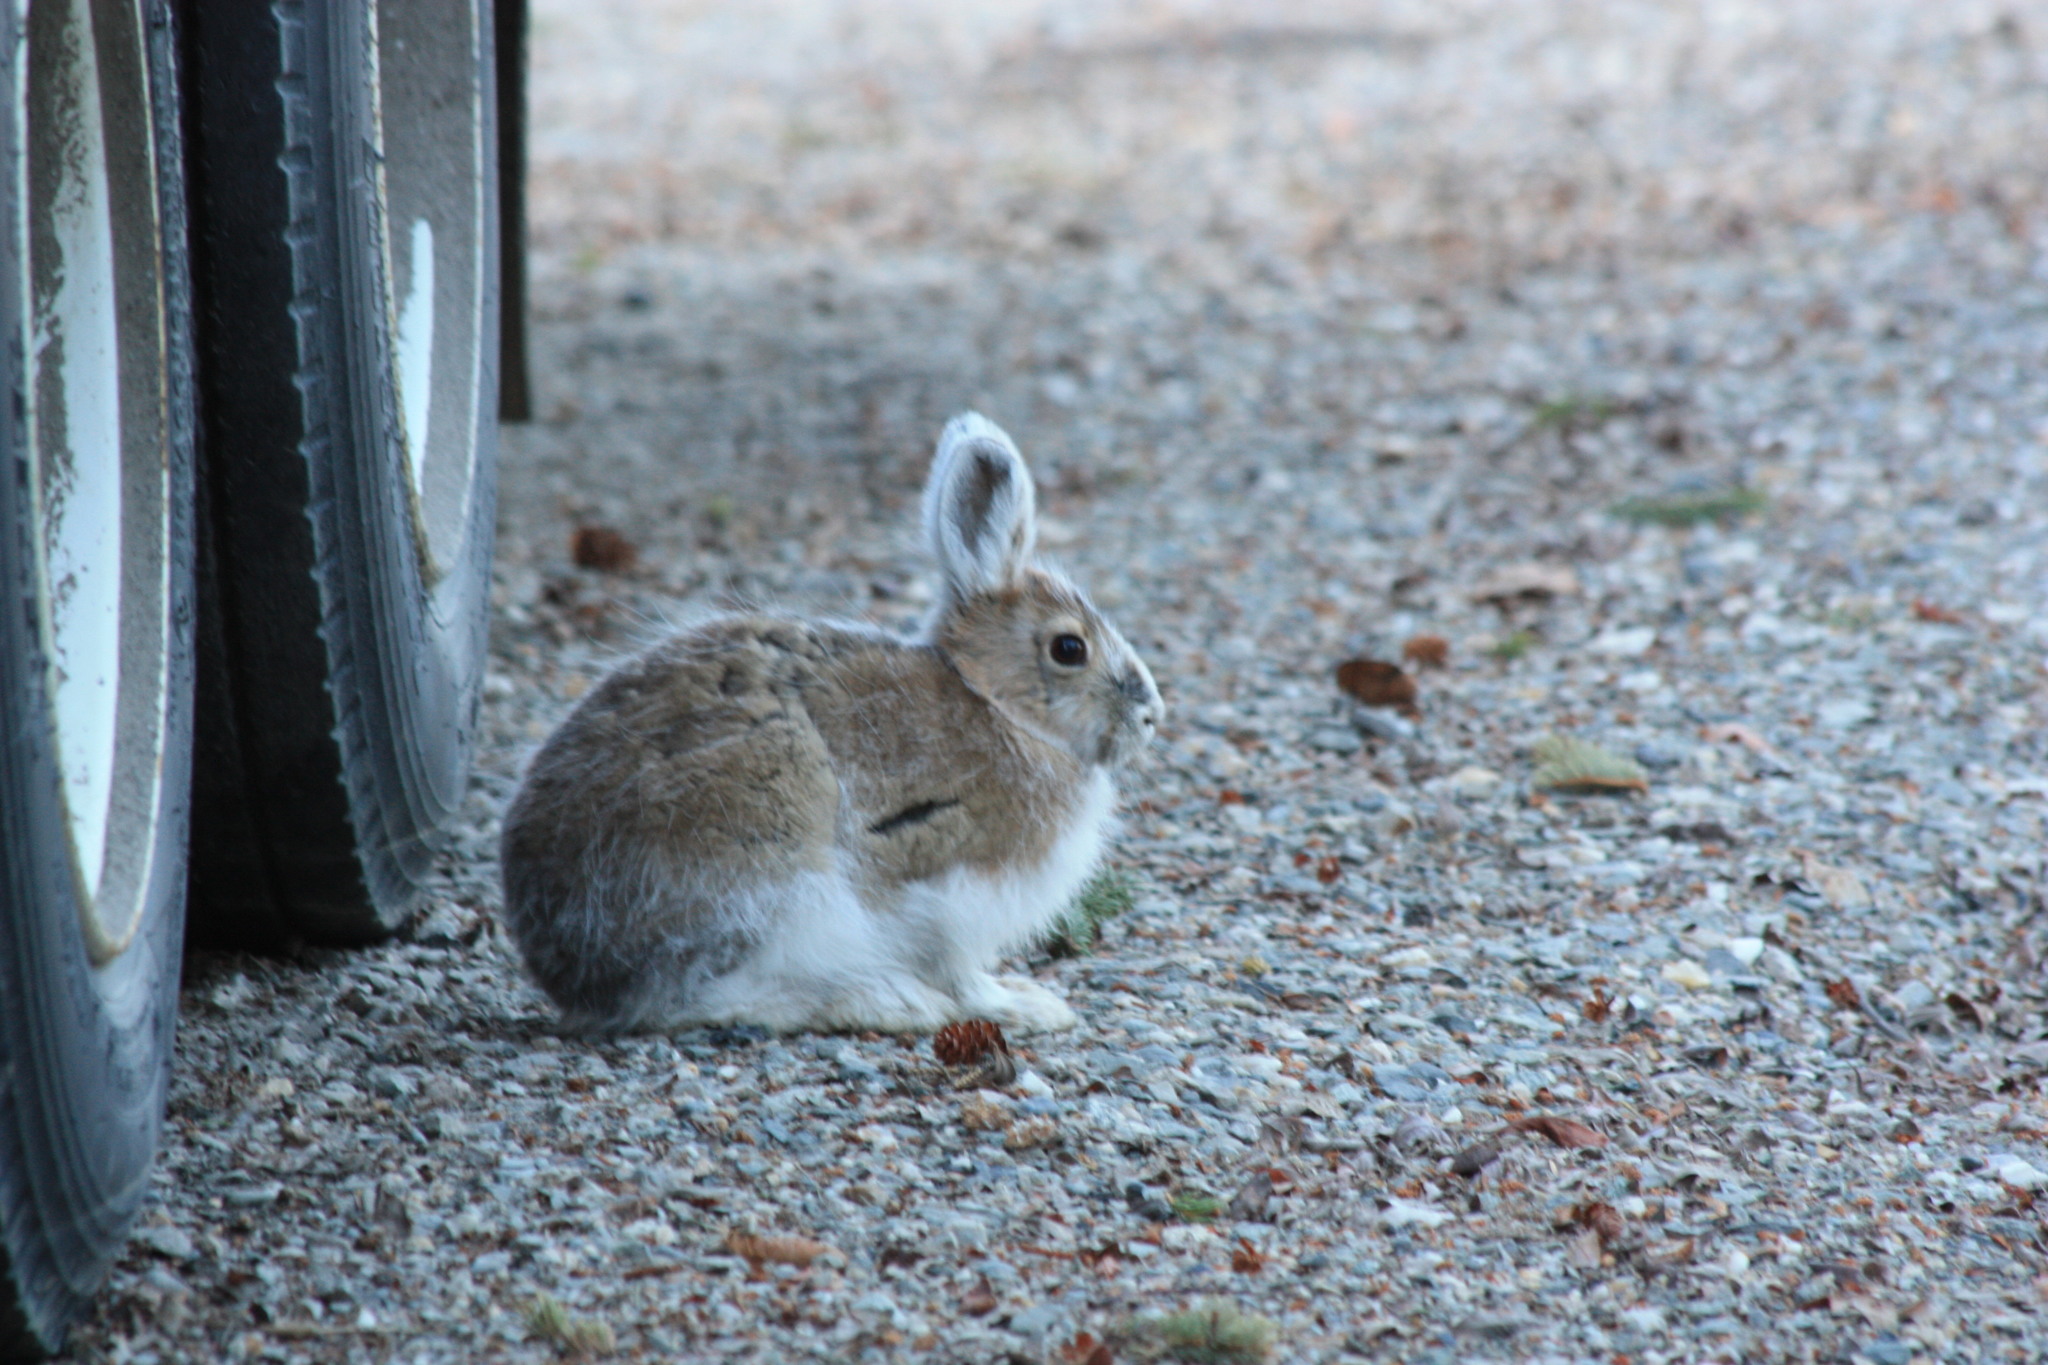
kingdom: Animalia
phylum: Chordata
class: Mammalia
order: Lagomorpha
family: Leporidae
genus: Lepus
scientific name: Lepus americanus
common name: Snowshoe hare
